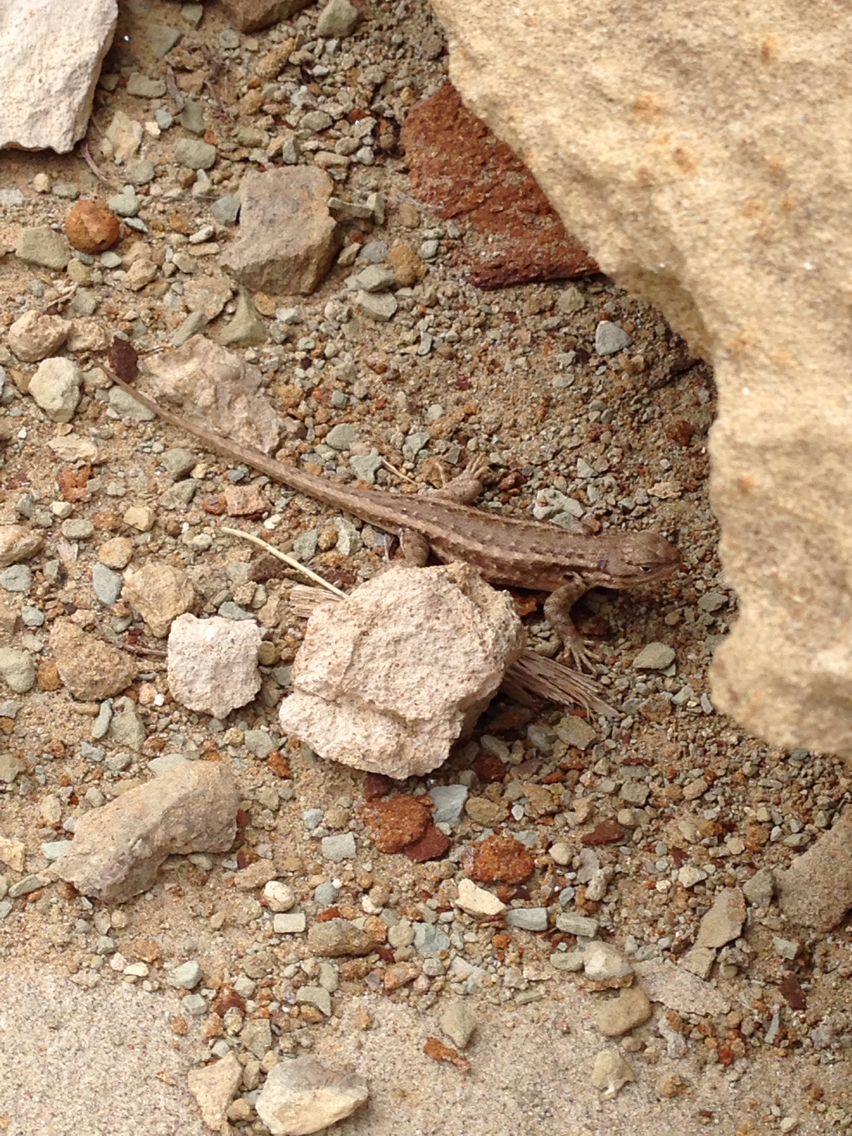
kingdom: Animalia
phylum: Chordata
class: Squamata
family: Phrynosomatidae
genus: Sceloporus
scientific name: Sceloporus graciosus
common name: Sagebrush lizard
